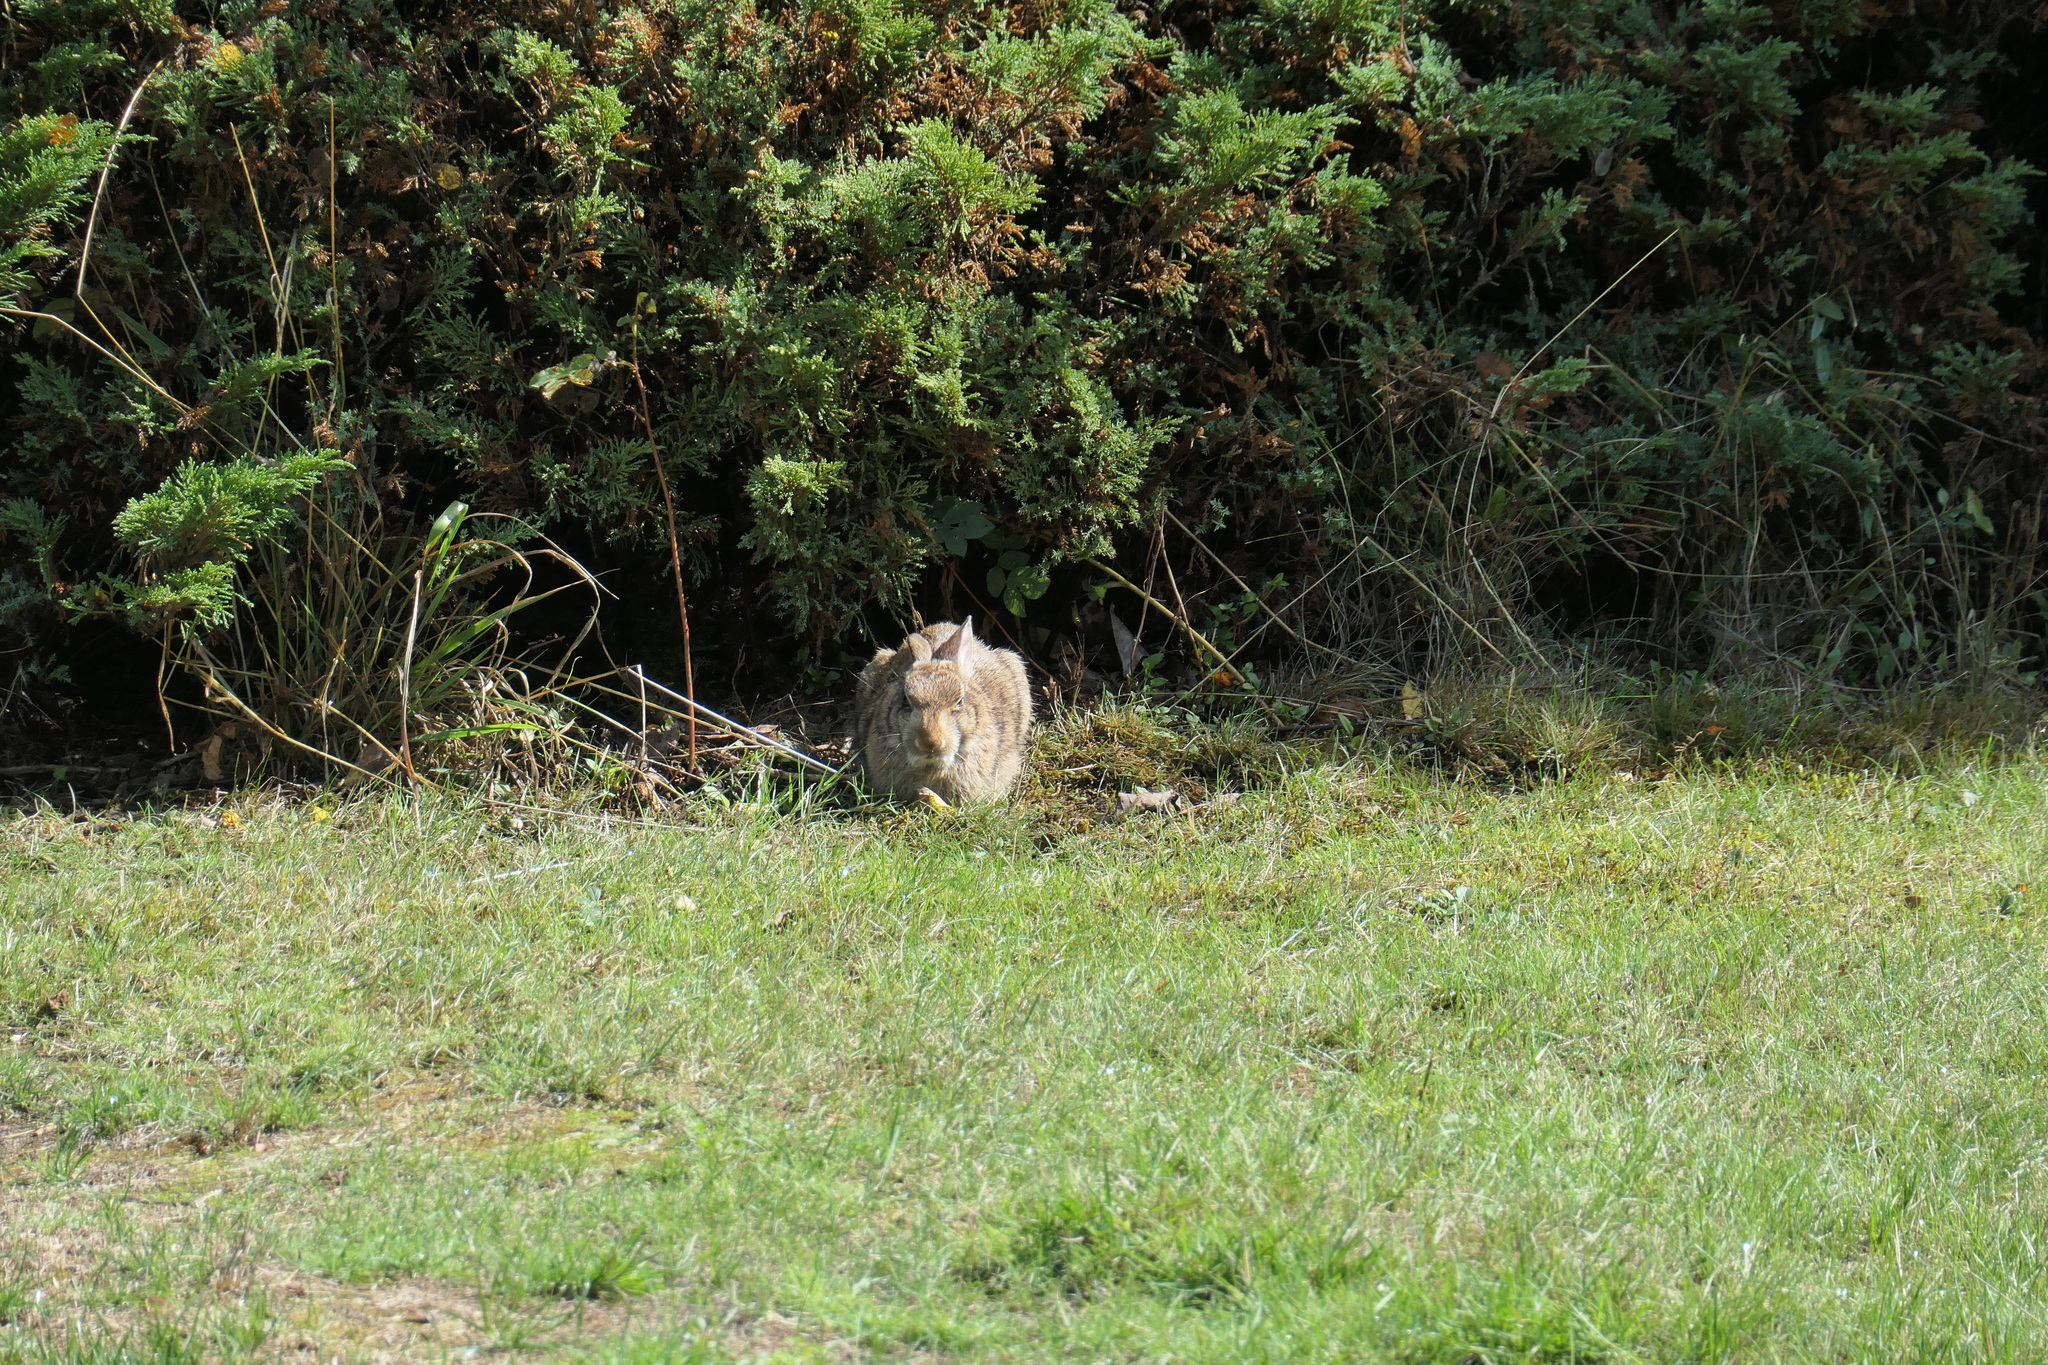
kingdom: Animalia
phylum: Chordata
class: Mammalia
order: Lagomorpha
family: Leporidae
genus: Oryctolagus
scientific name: Oryctolagus cuniculus
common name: European rabbit
